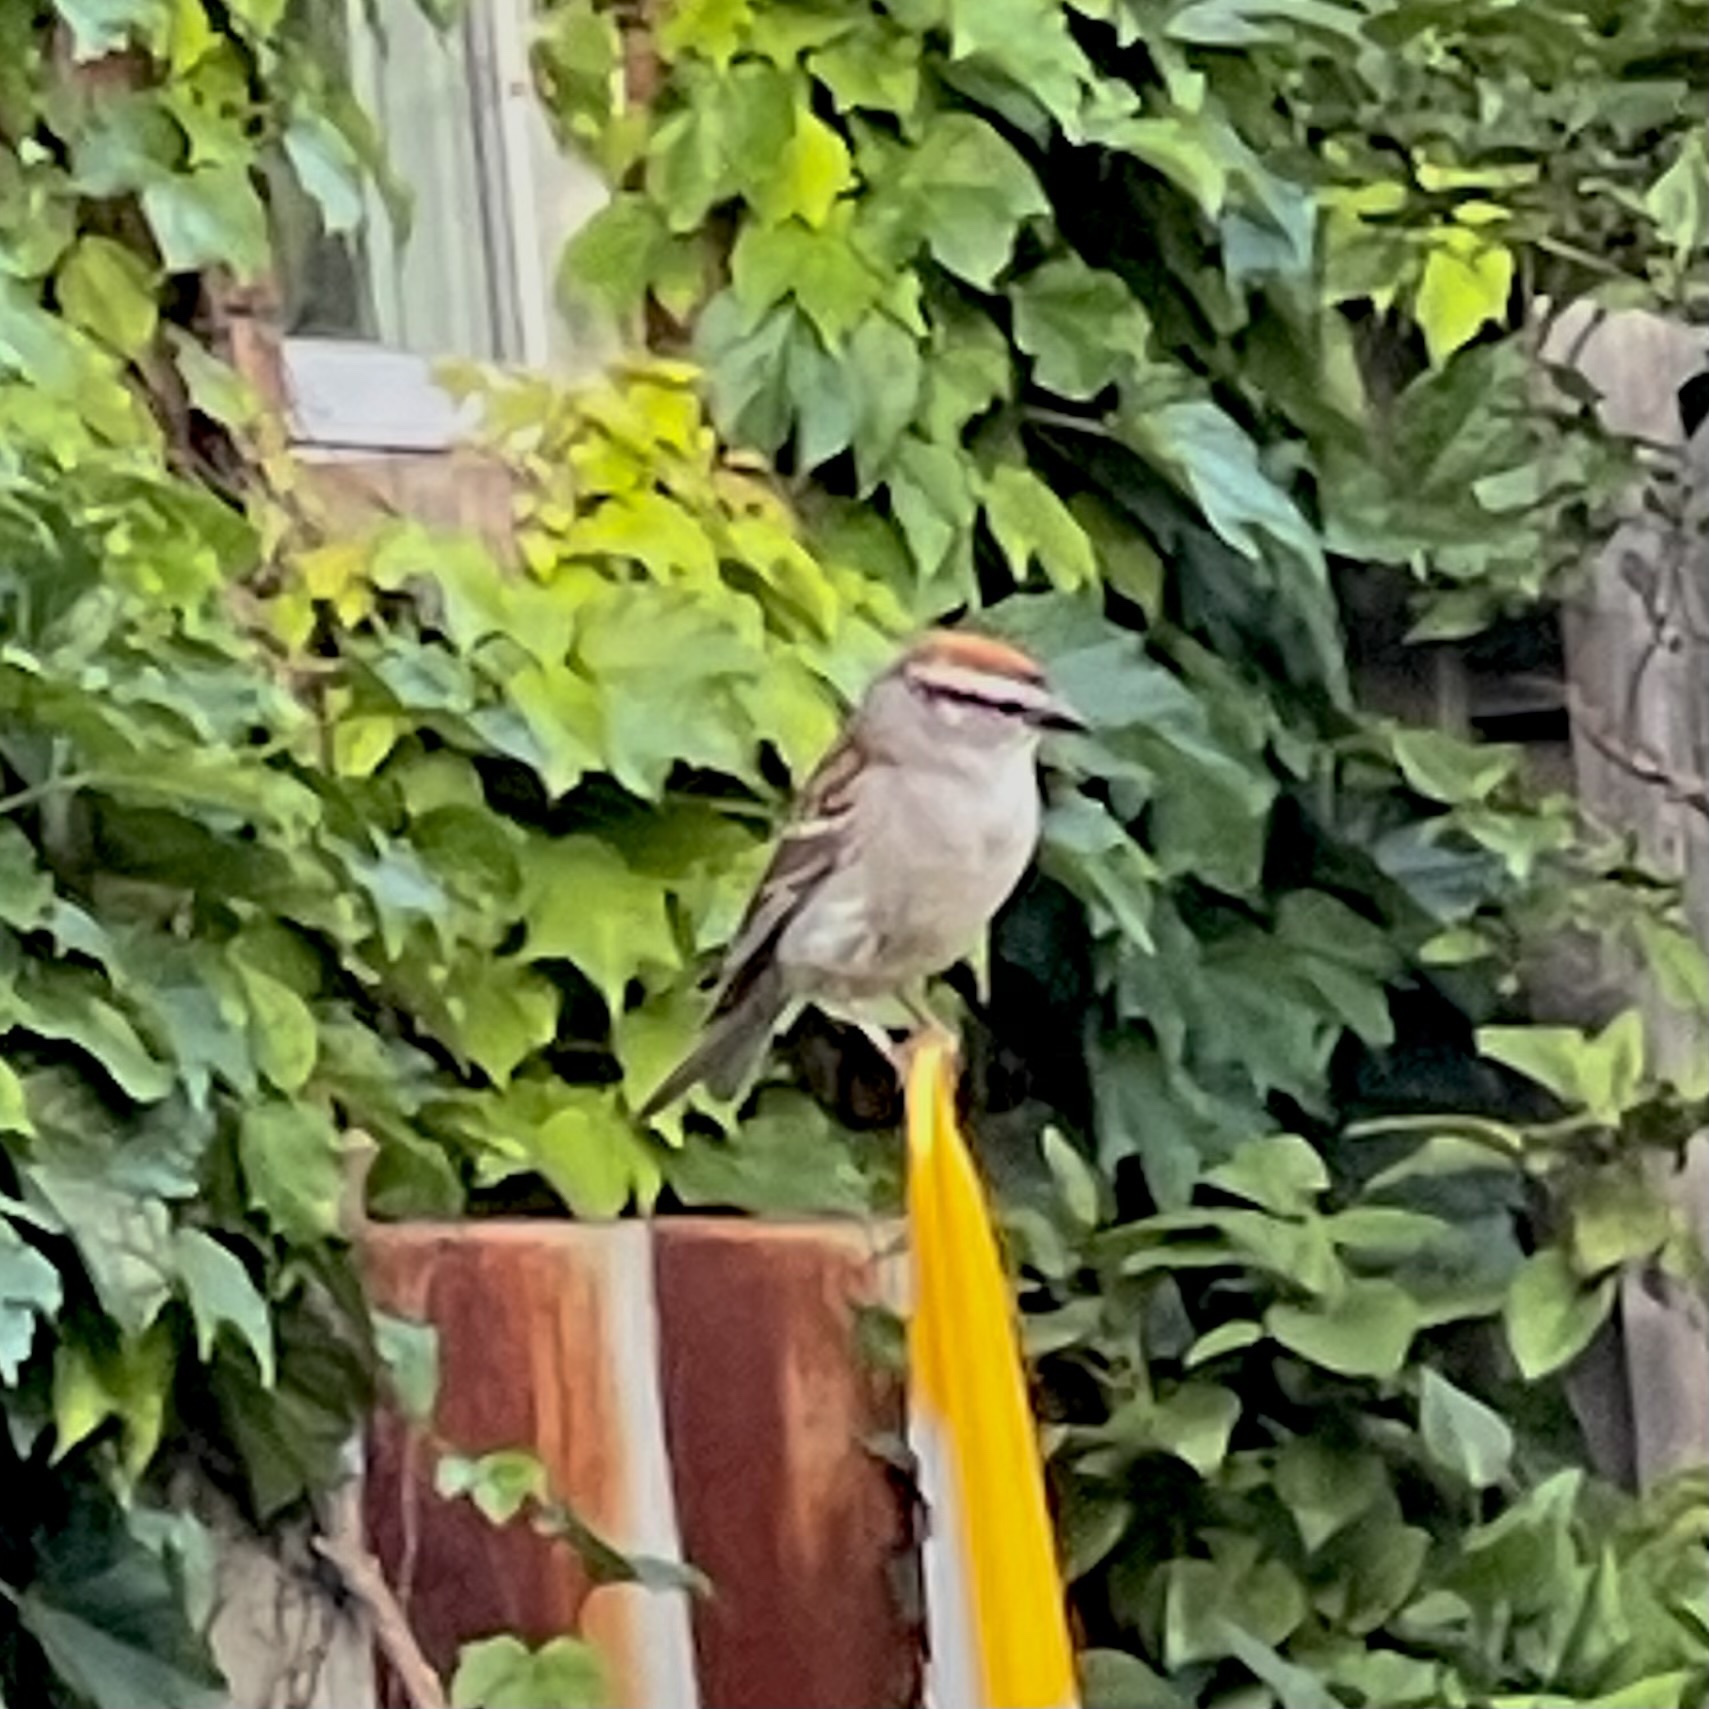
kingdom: Animalia
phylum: Chordata
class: Aves
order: Passeriformes
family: Passerellidae
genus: Spizella
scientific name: Spizella passerina
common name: Chipping sparrow
